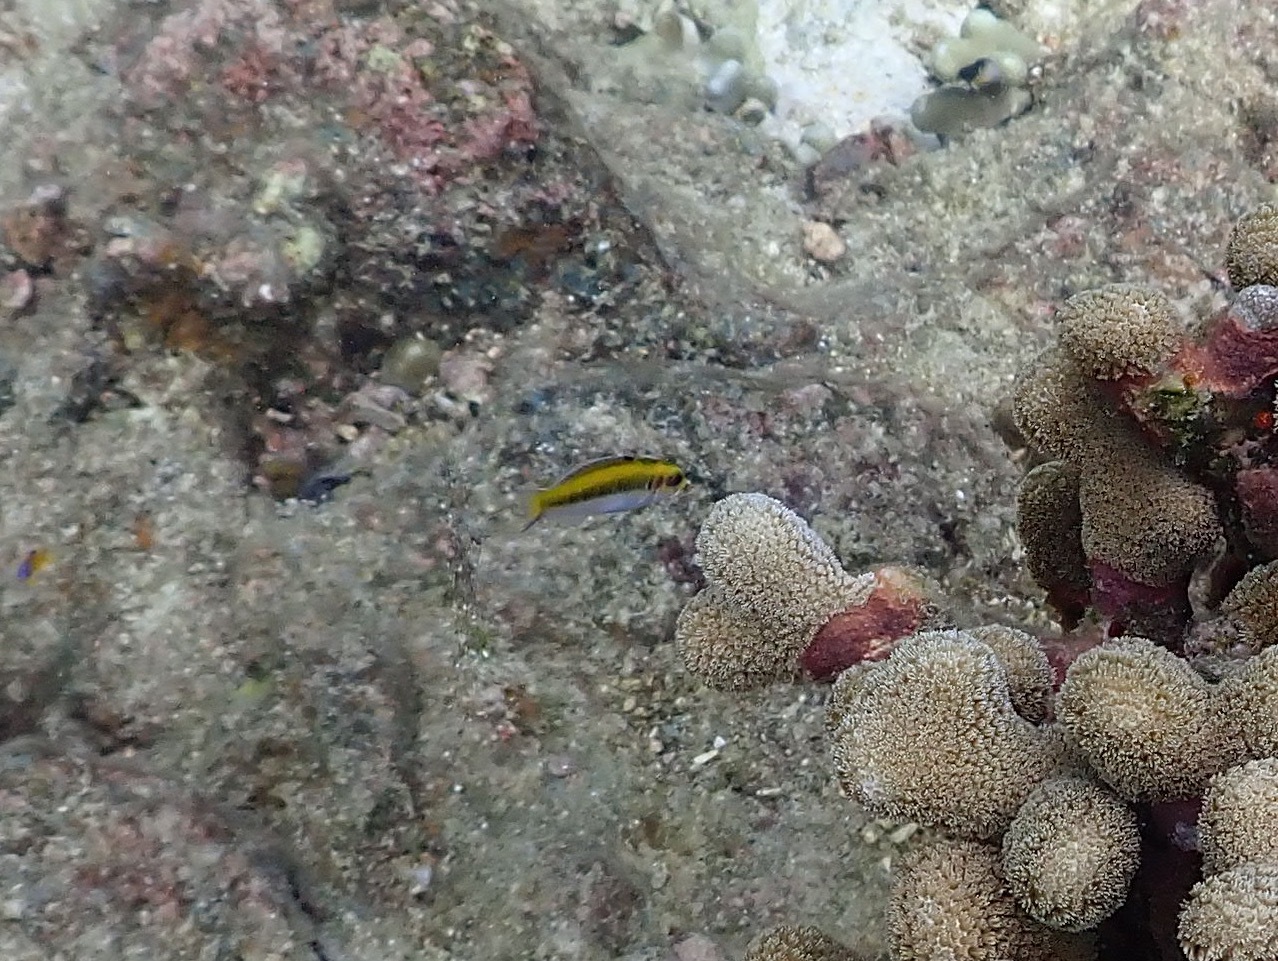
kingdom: Animalia
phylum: Chordata
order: Perciformes
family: Labridae
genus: Thalassoma
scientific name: Thalassoma bifasciatum
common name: Bluehead wrasse
